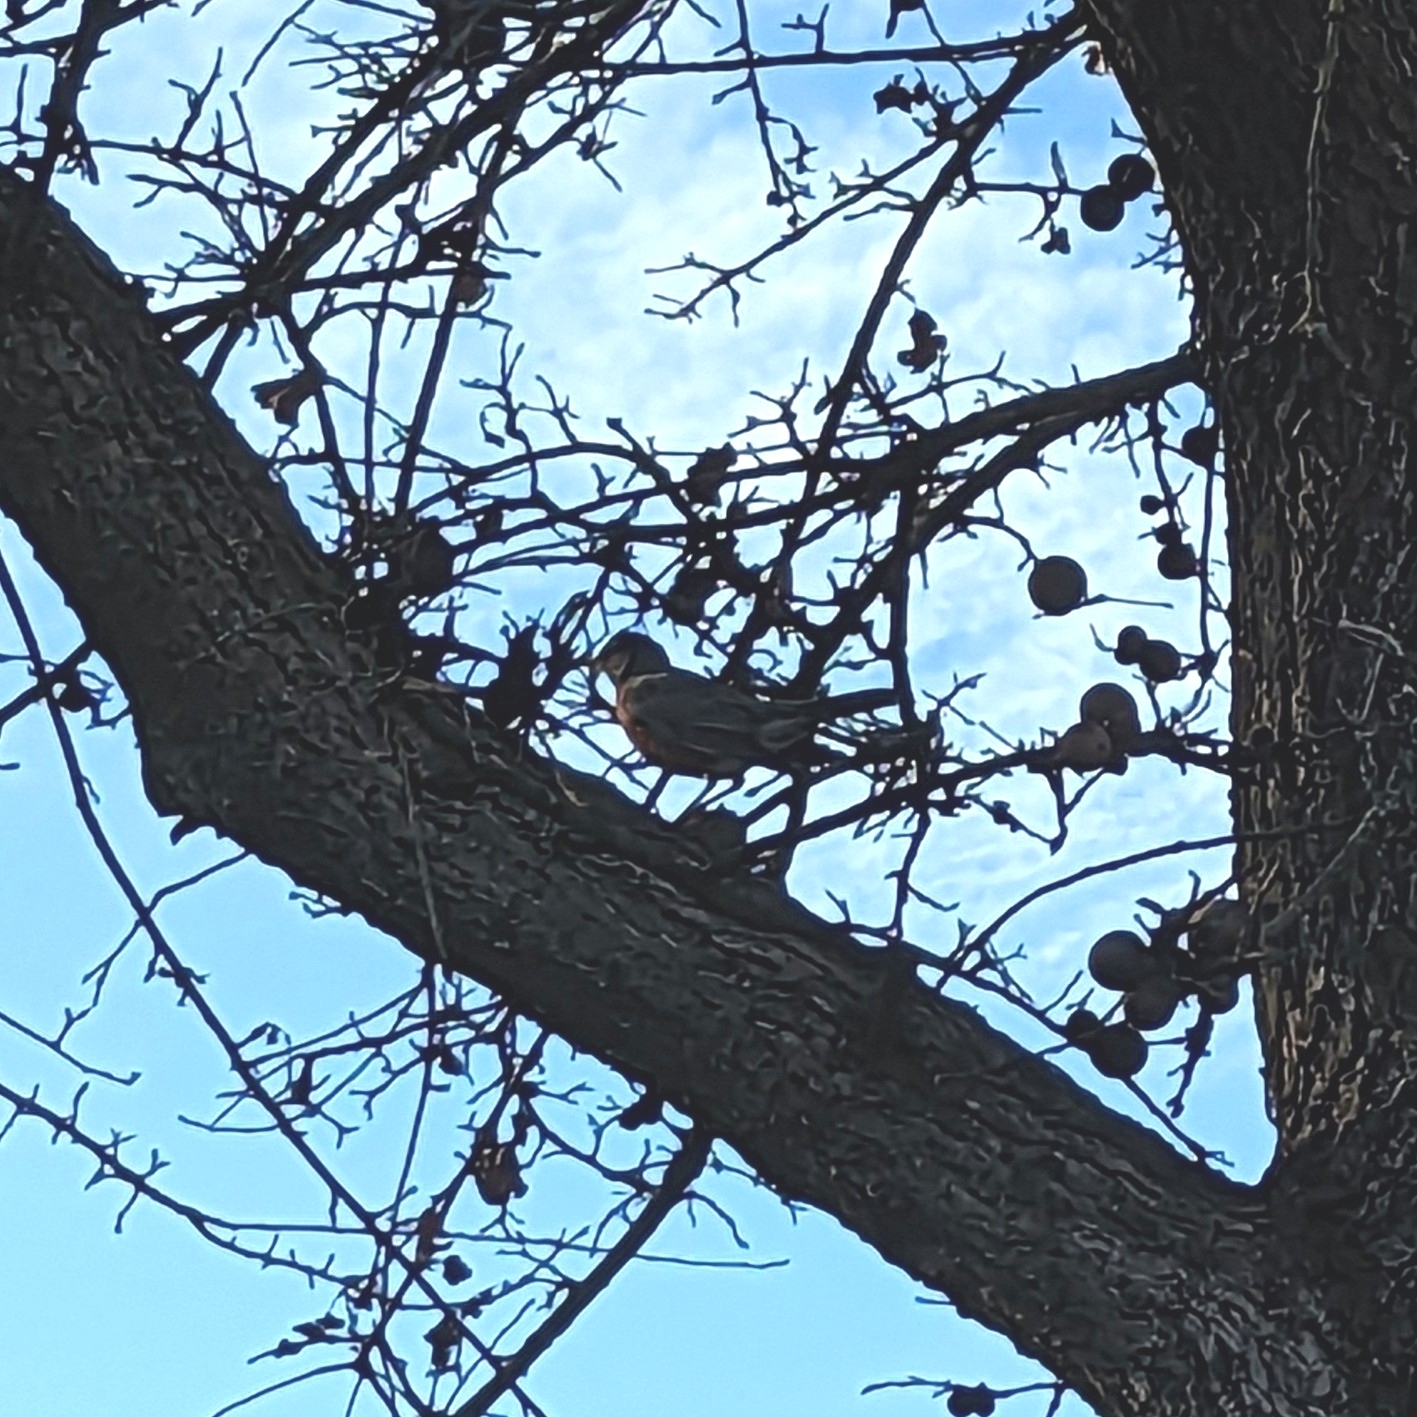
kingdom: Animalia
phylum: Chordata
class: Aves
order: Passeriformes
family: Turdidae
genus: Turdus
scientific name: Turdus migratorius
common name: American robin
